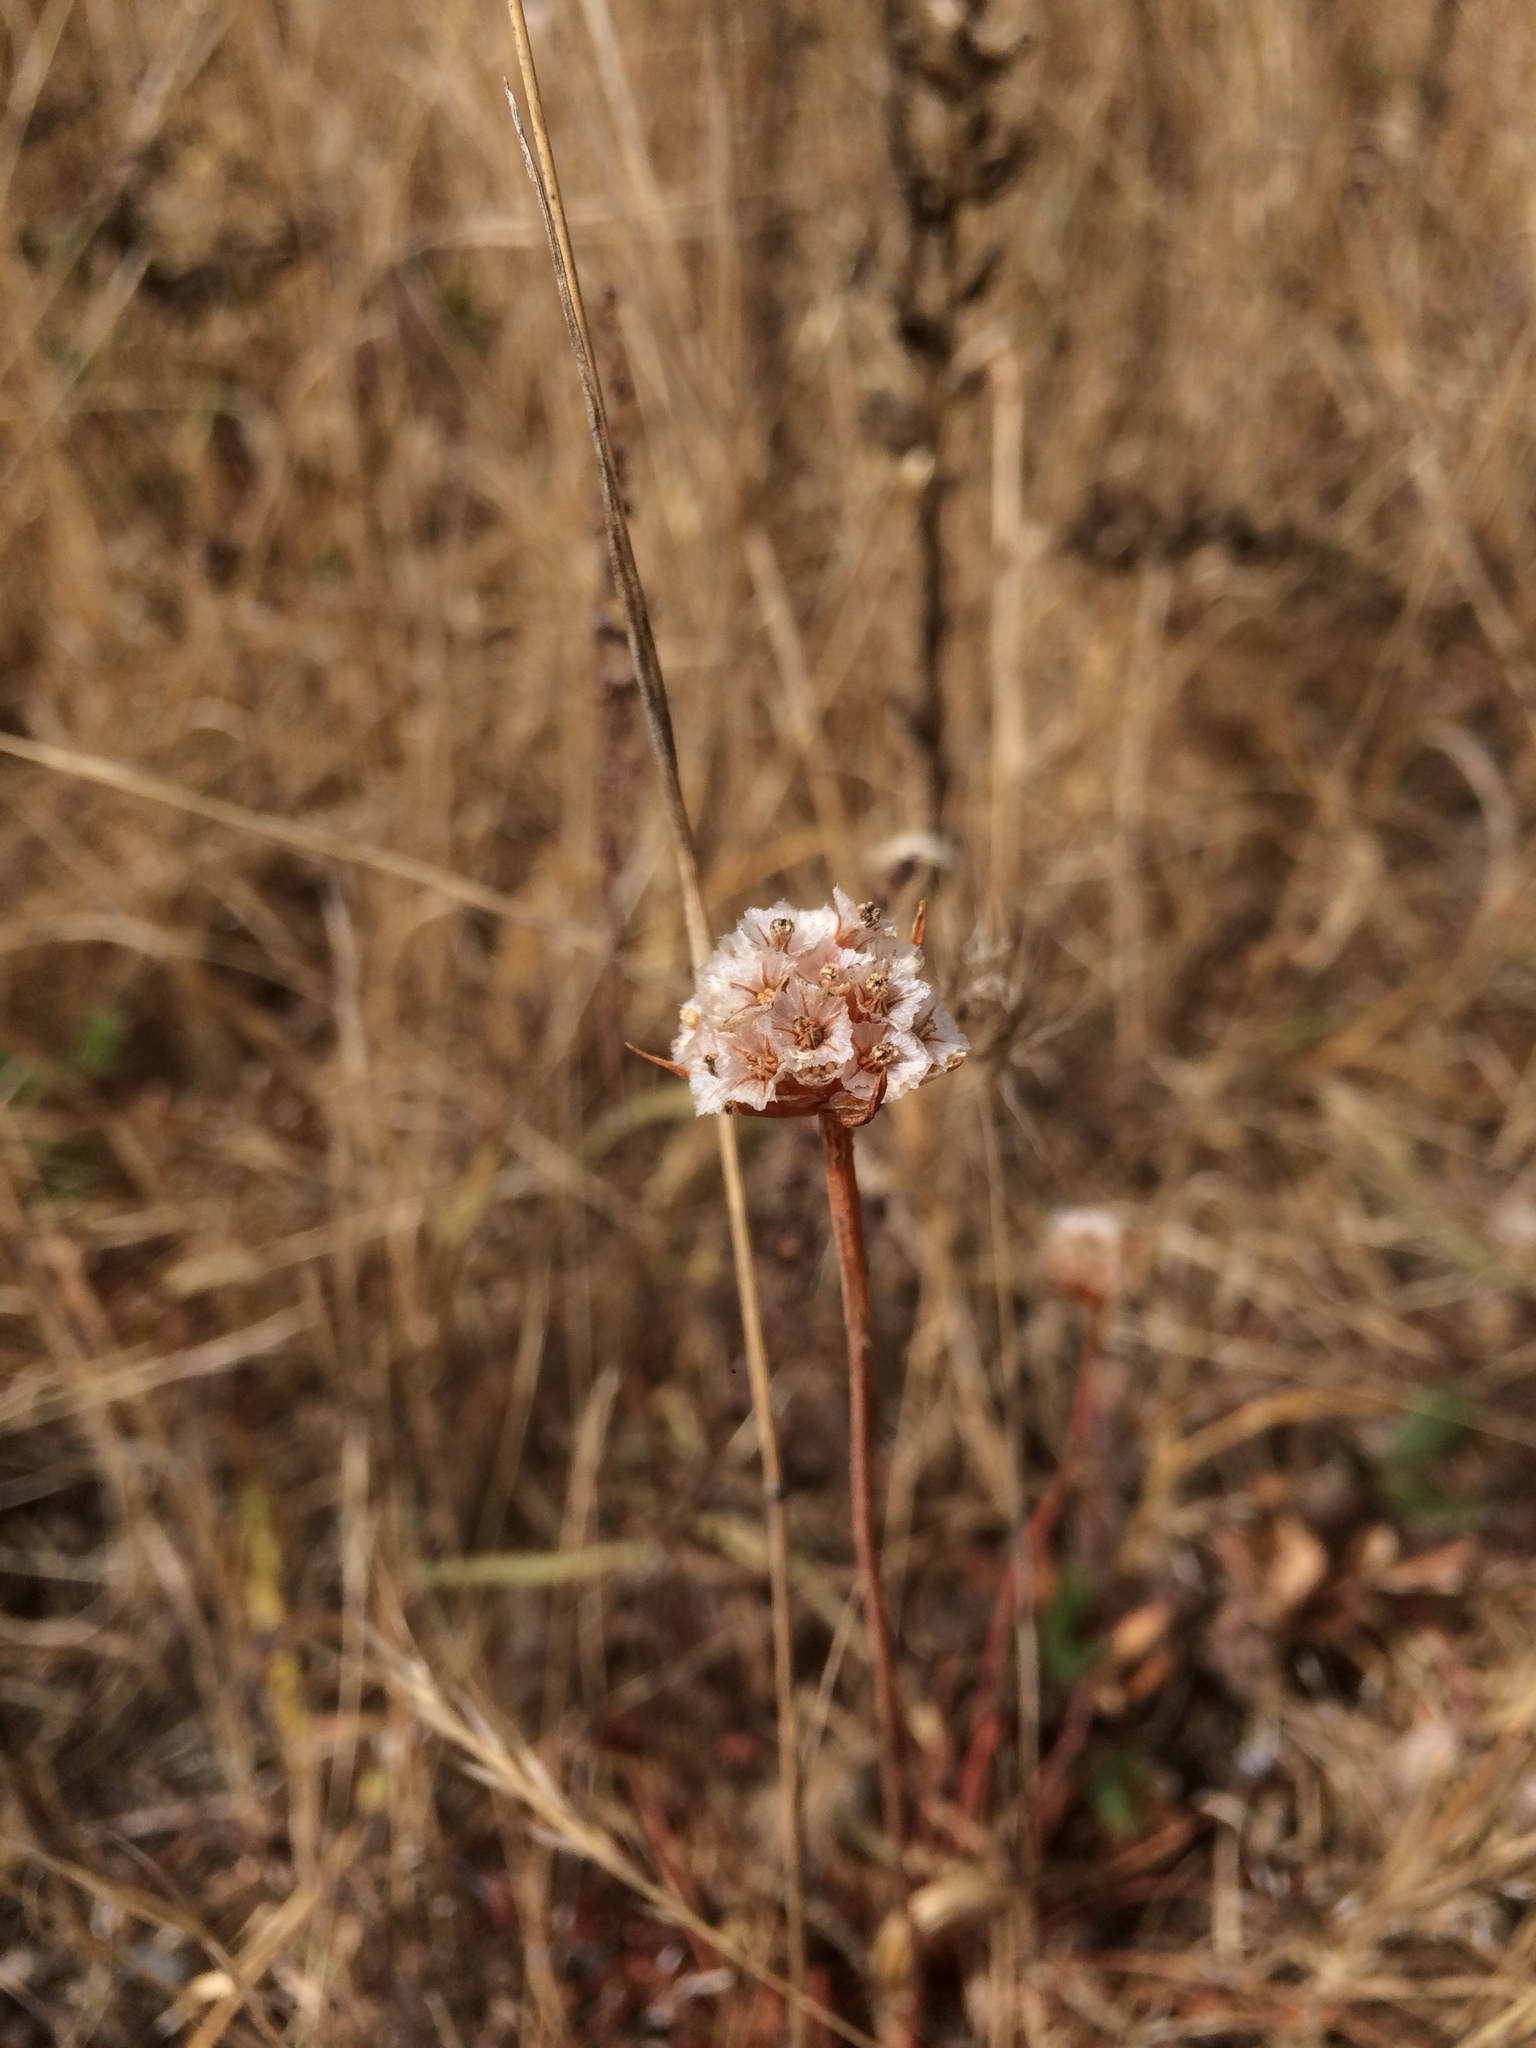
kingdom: Plantae
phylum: Tracheophyta
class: Magnoliopsida
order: Caryophyllales
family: Plumbaginaceae
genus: Armeria
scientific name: Armeria maritima
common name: Thrift
